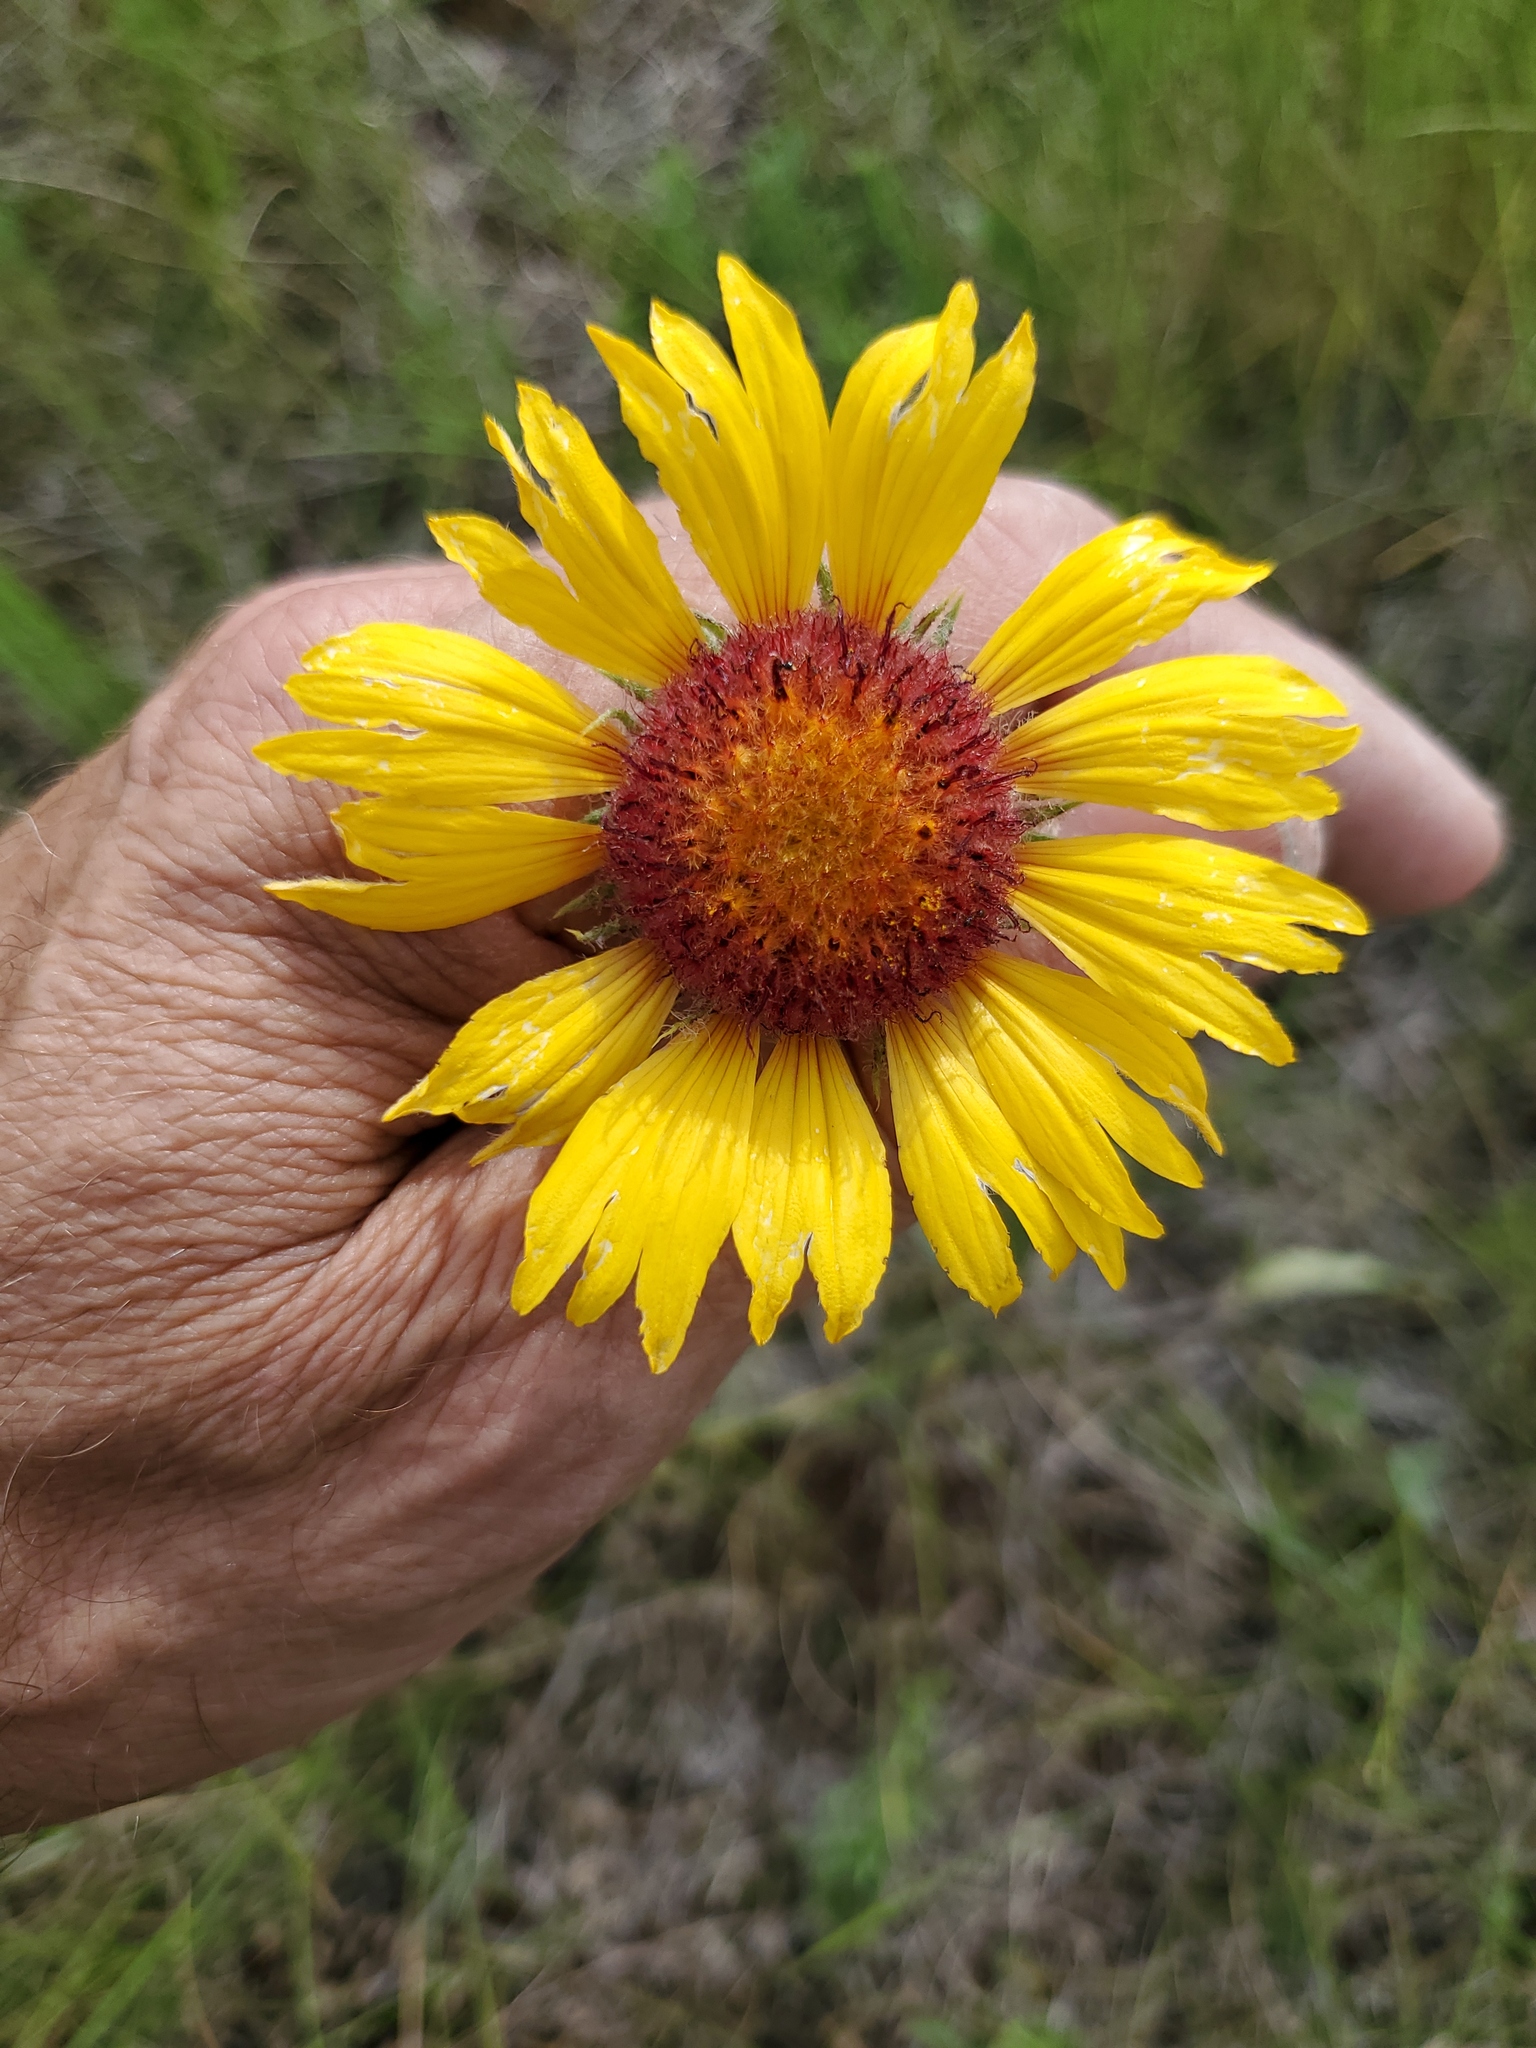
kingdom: Plantae
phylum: Tracheophyta
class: Magnoliopsida
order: Asterales
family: Asteraceae
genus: Gaillardia
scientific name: Gaillardia aristata
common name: Blanket-flower
